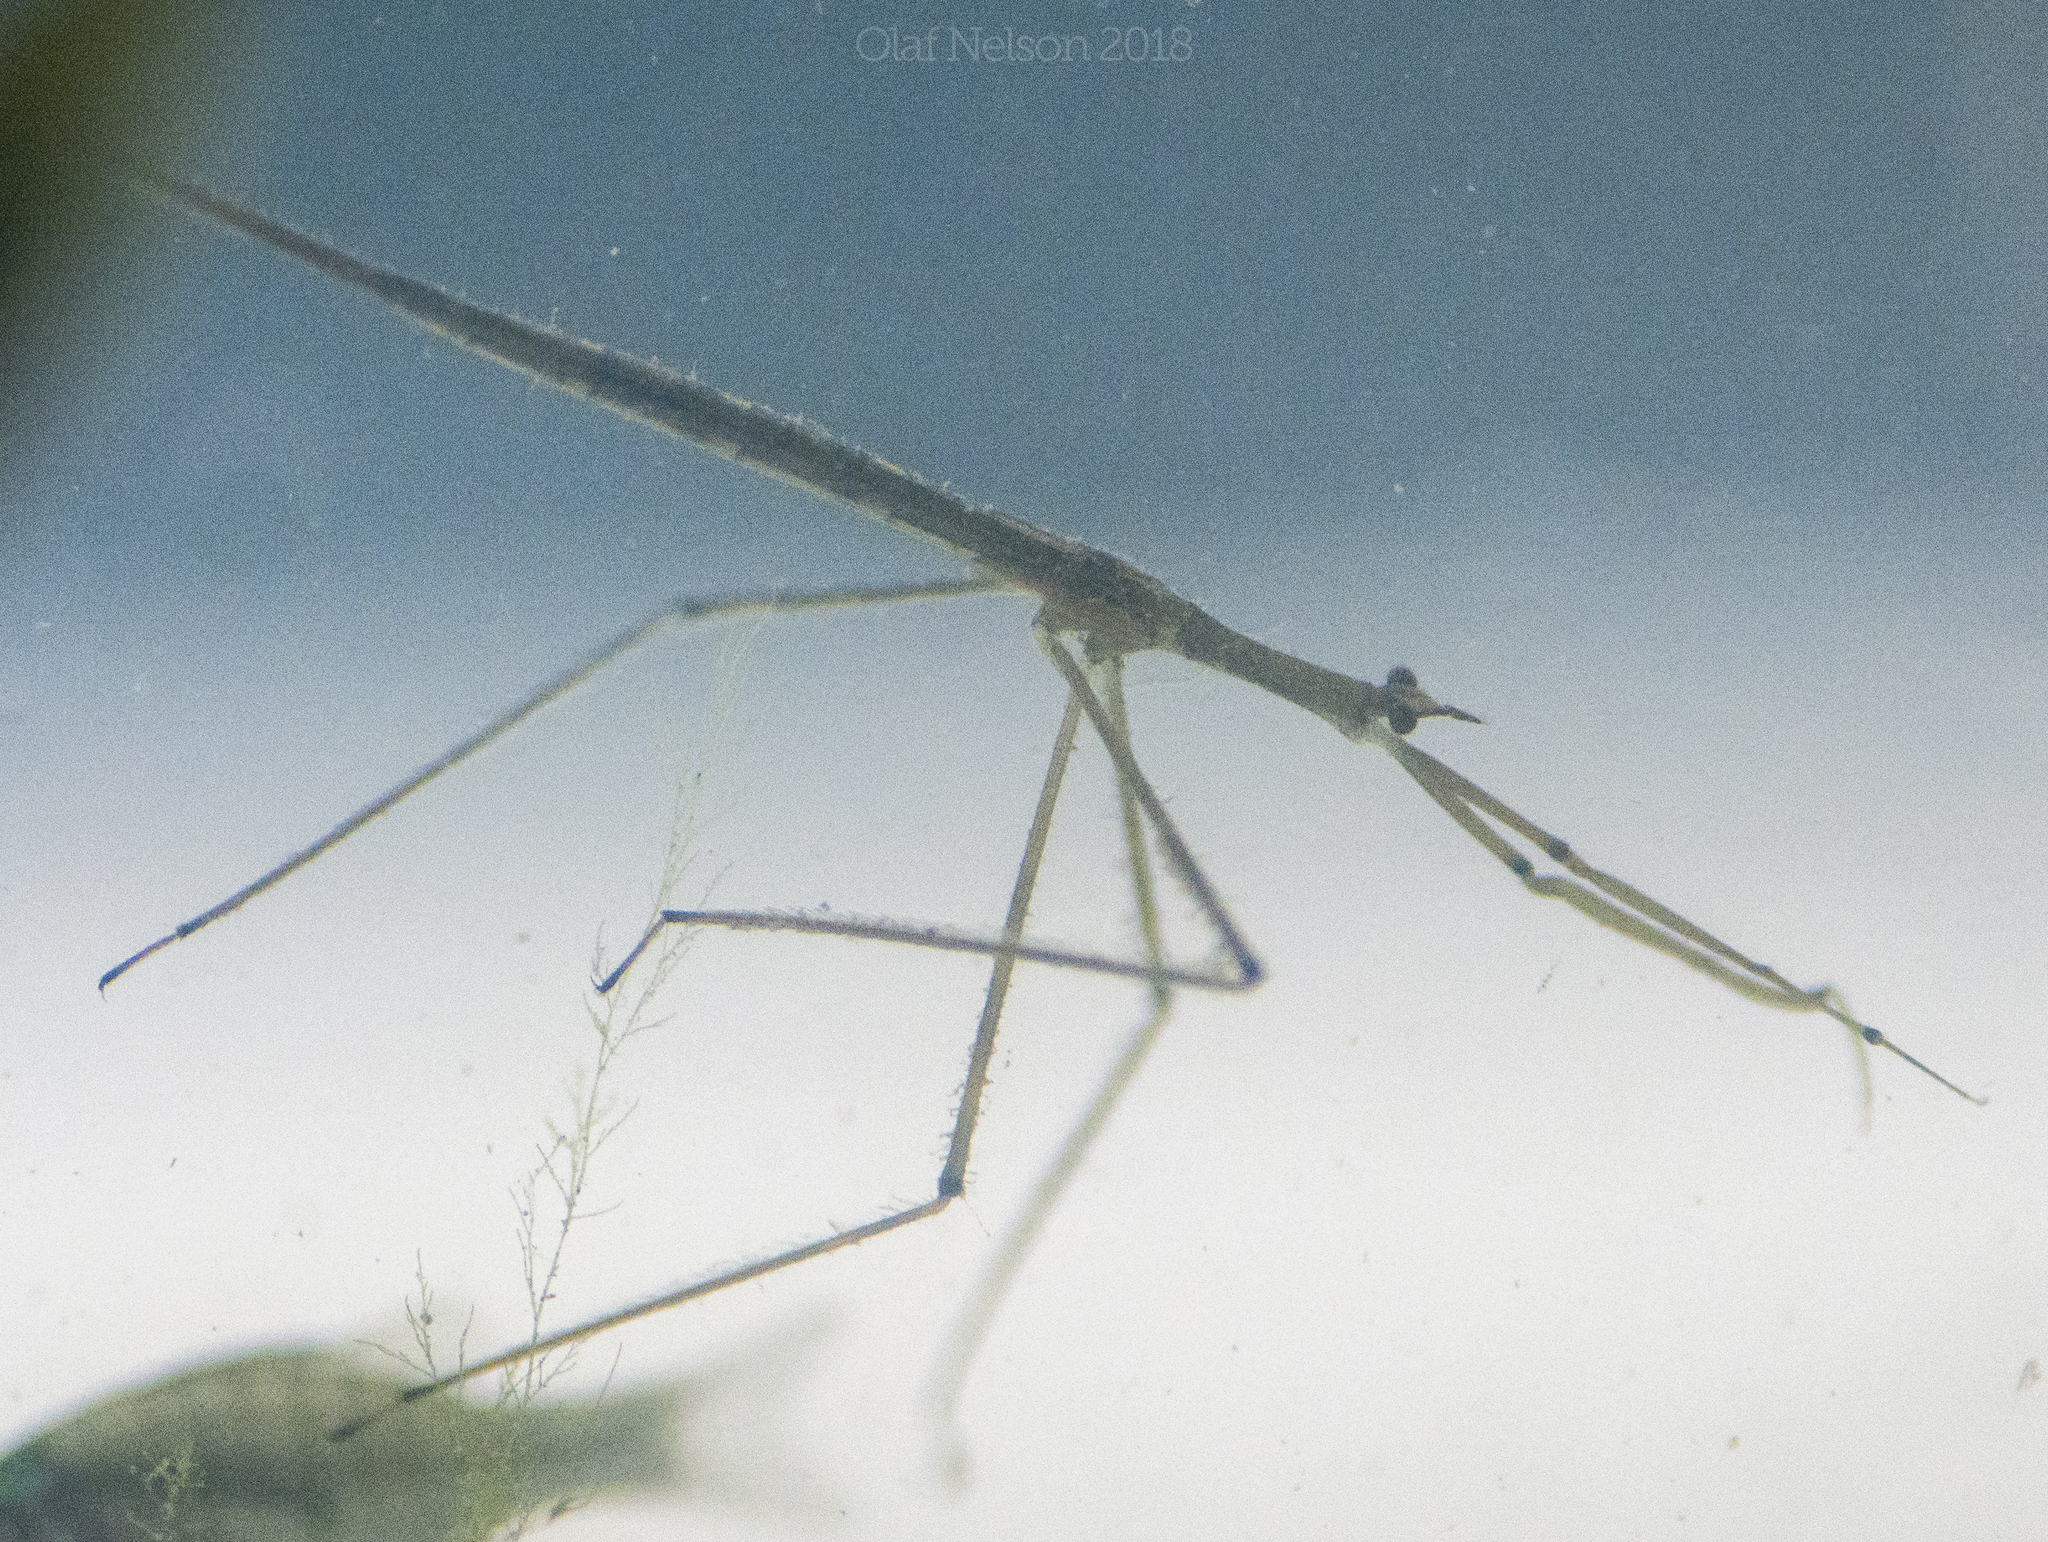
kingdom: Animalia
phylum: Arthropoda
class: Insecta
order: Hemiptera
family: Nepidae
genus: Ranatra
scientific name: Ranatra
